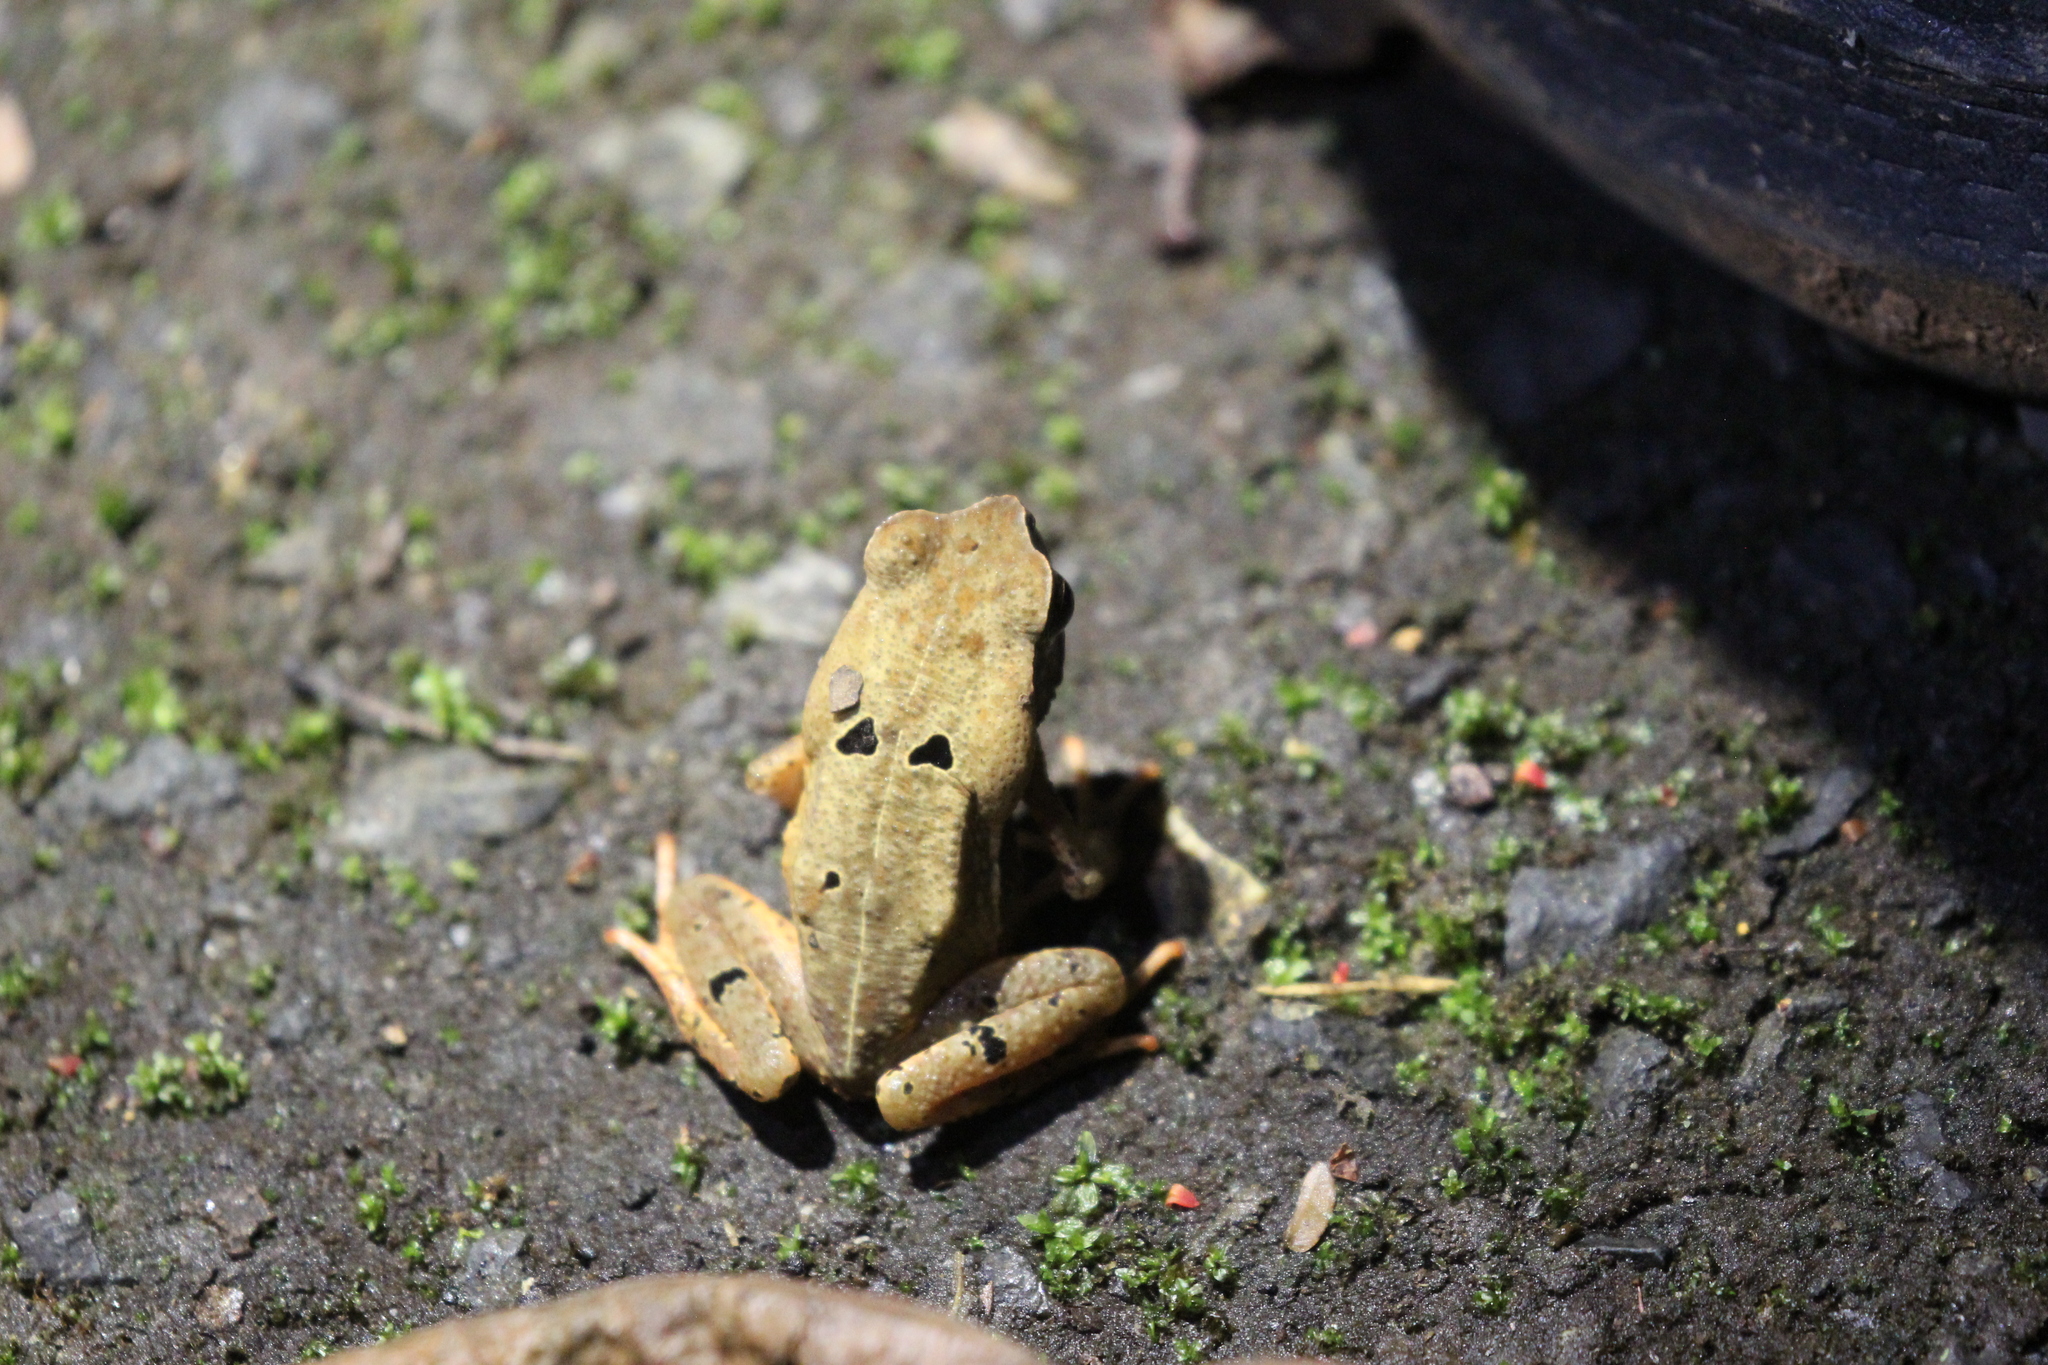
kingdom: Animalia
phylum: Chordata
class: Amphibia
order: Anura
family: Bufonidae
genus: Rhaebo
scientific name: Rhaebo haematiticus
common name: Truando toad
